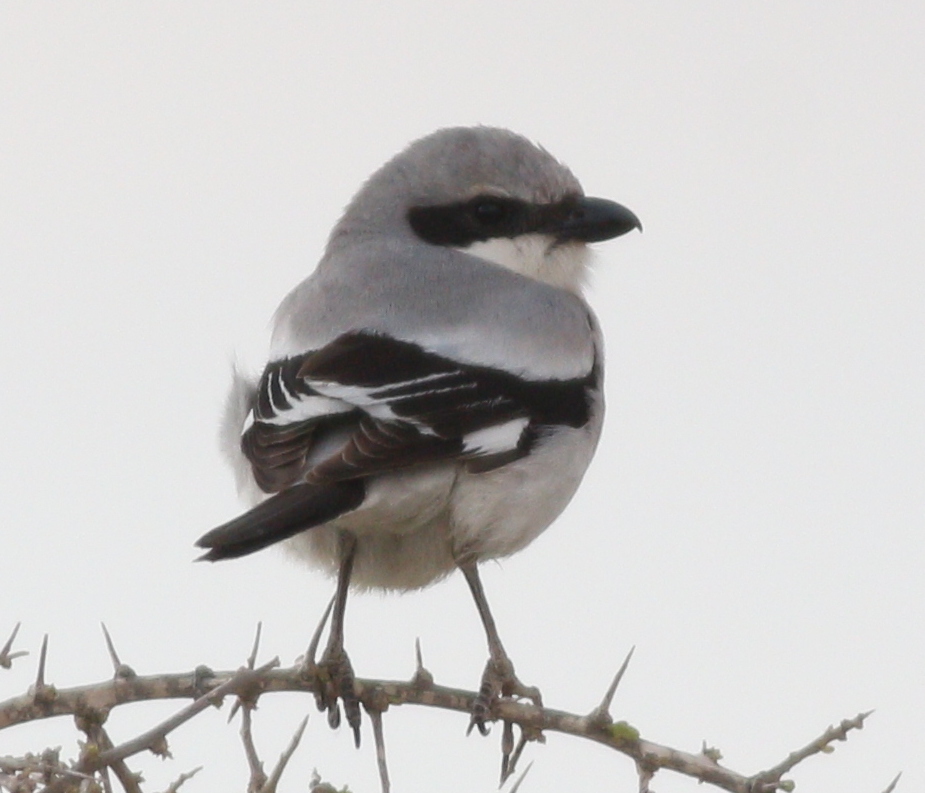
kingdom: Animalia
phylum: Chordata
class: Aves
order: Passeriformes
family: Laniidae
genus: Lanius
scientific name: Lanius excubitor
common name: Great grey shrike
